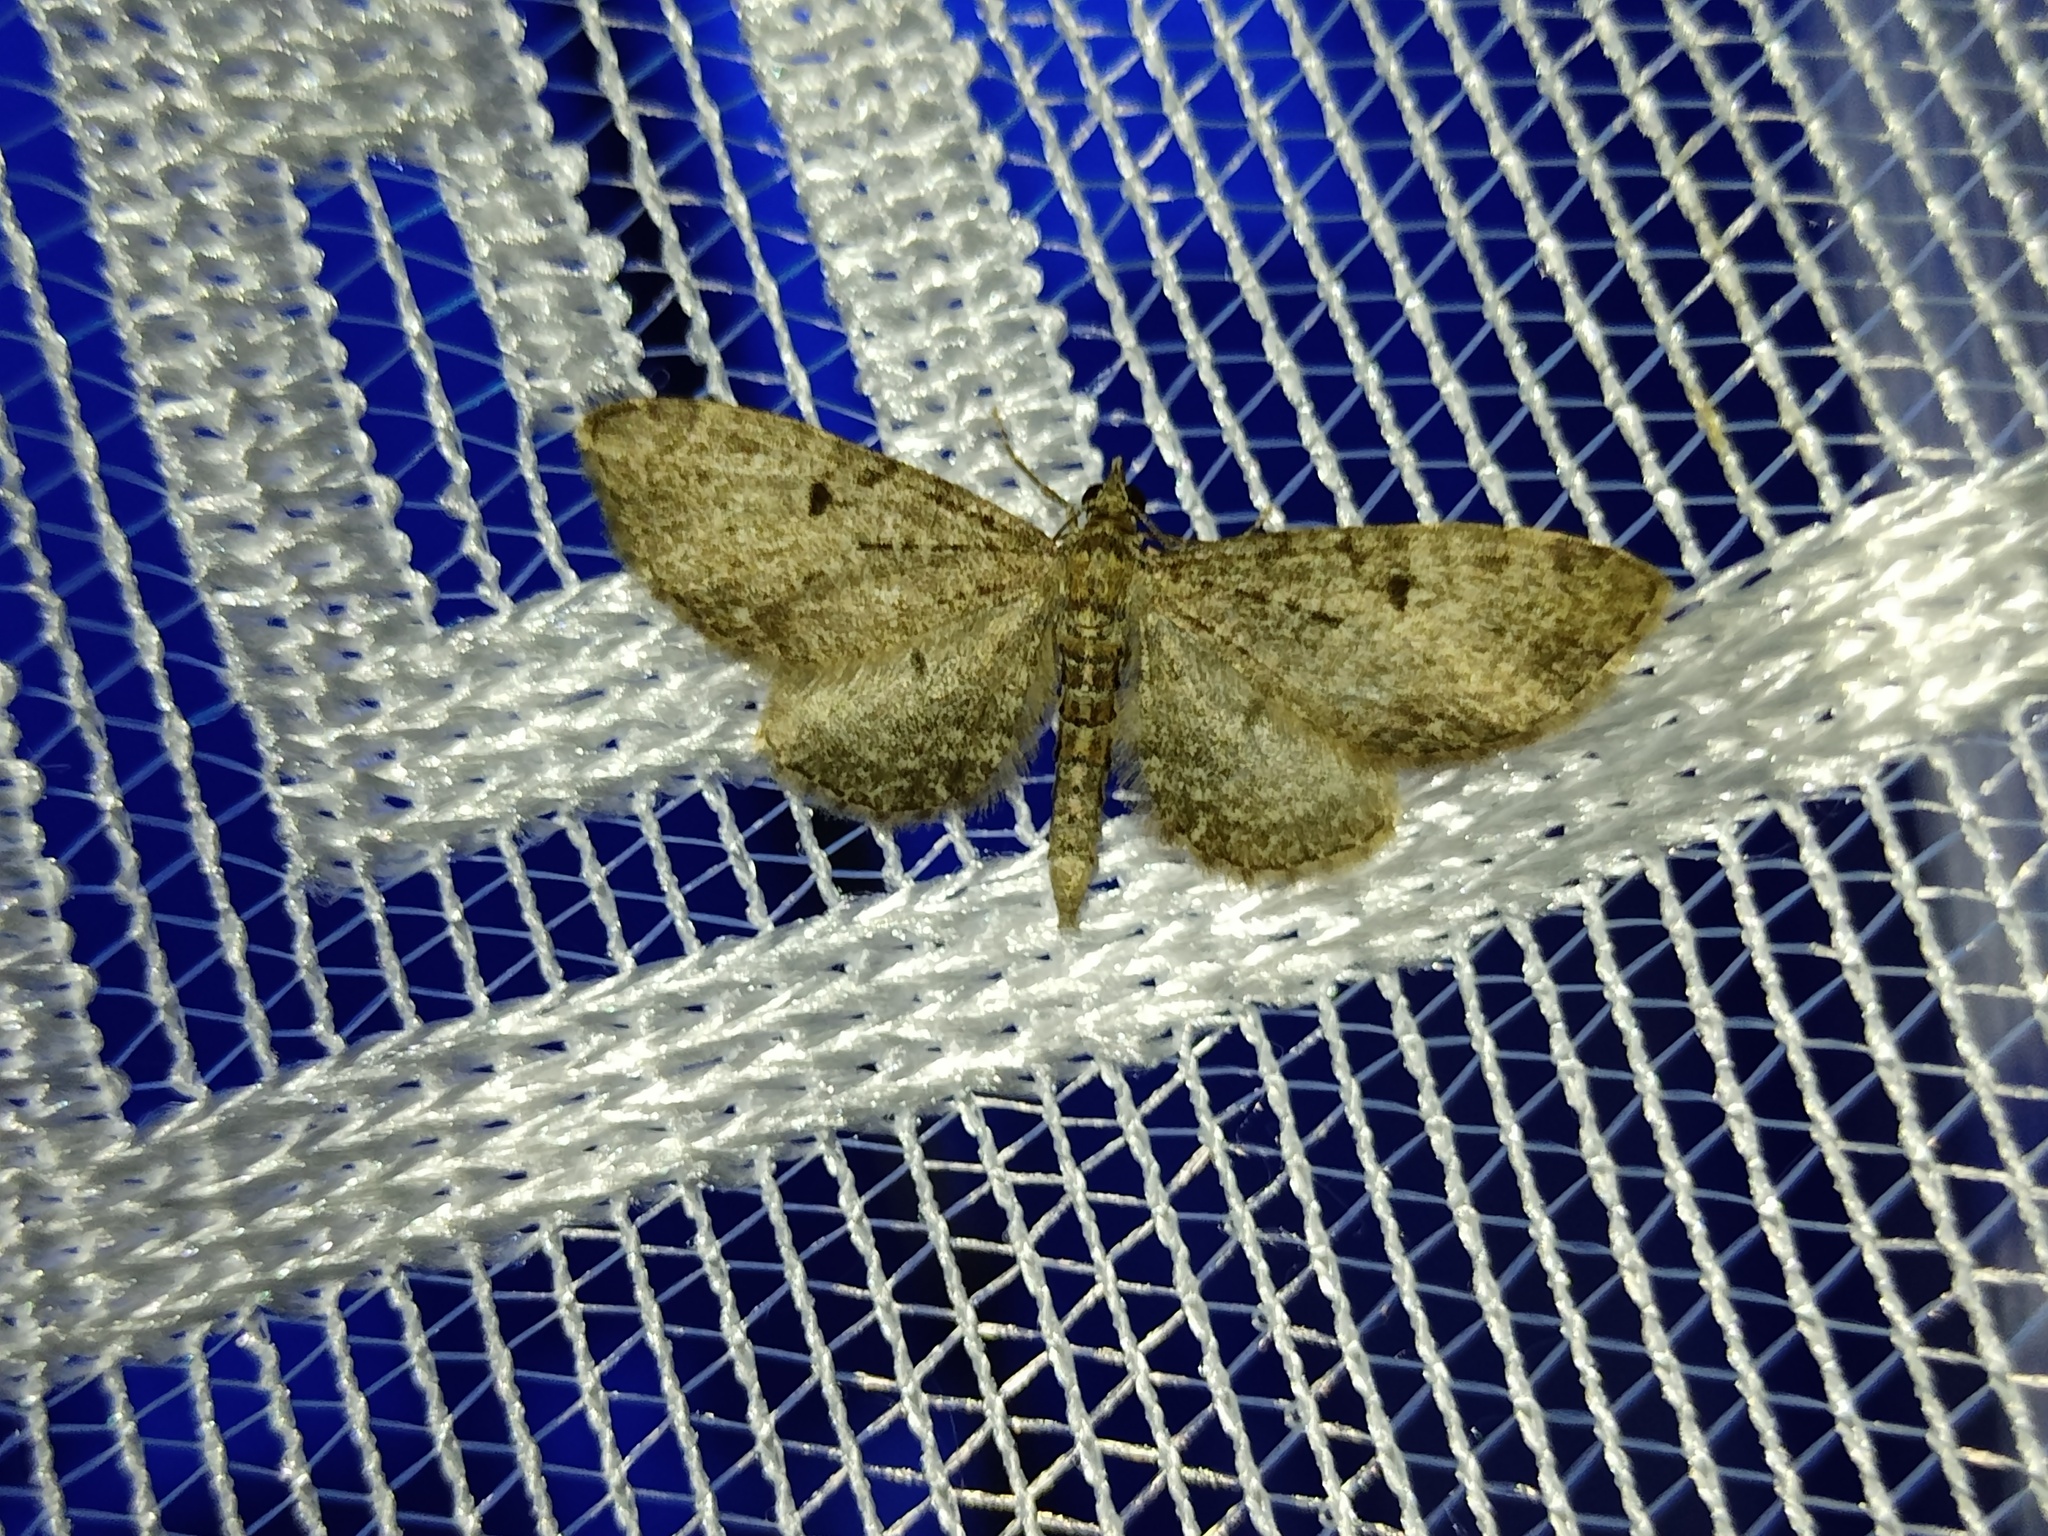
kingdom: Animalia
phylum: Arthropoda
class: Insecta
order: Lepidoptera
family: Geometridae
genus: Eupithecia
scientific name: Eupithecia virgaureata
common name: Golden-rod pug
